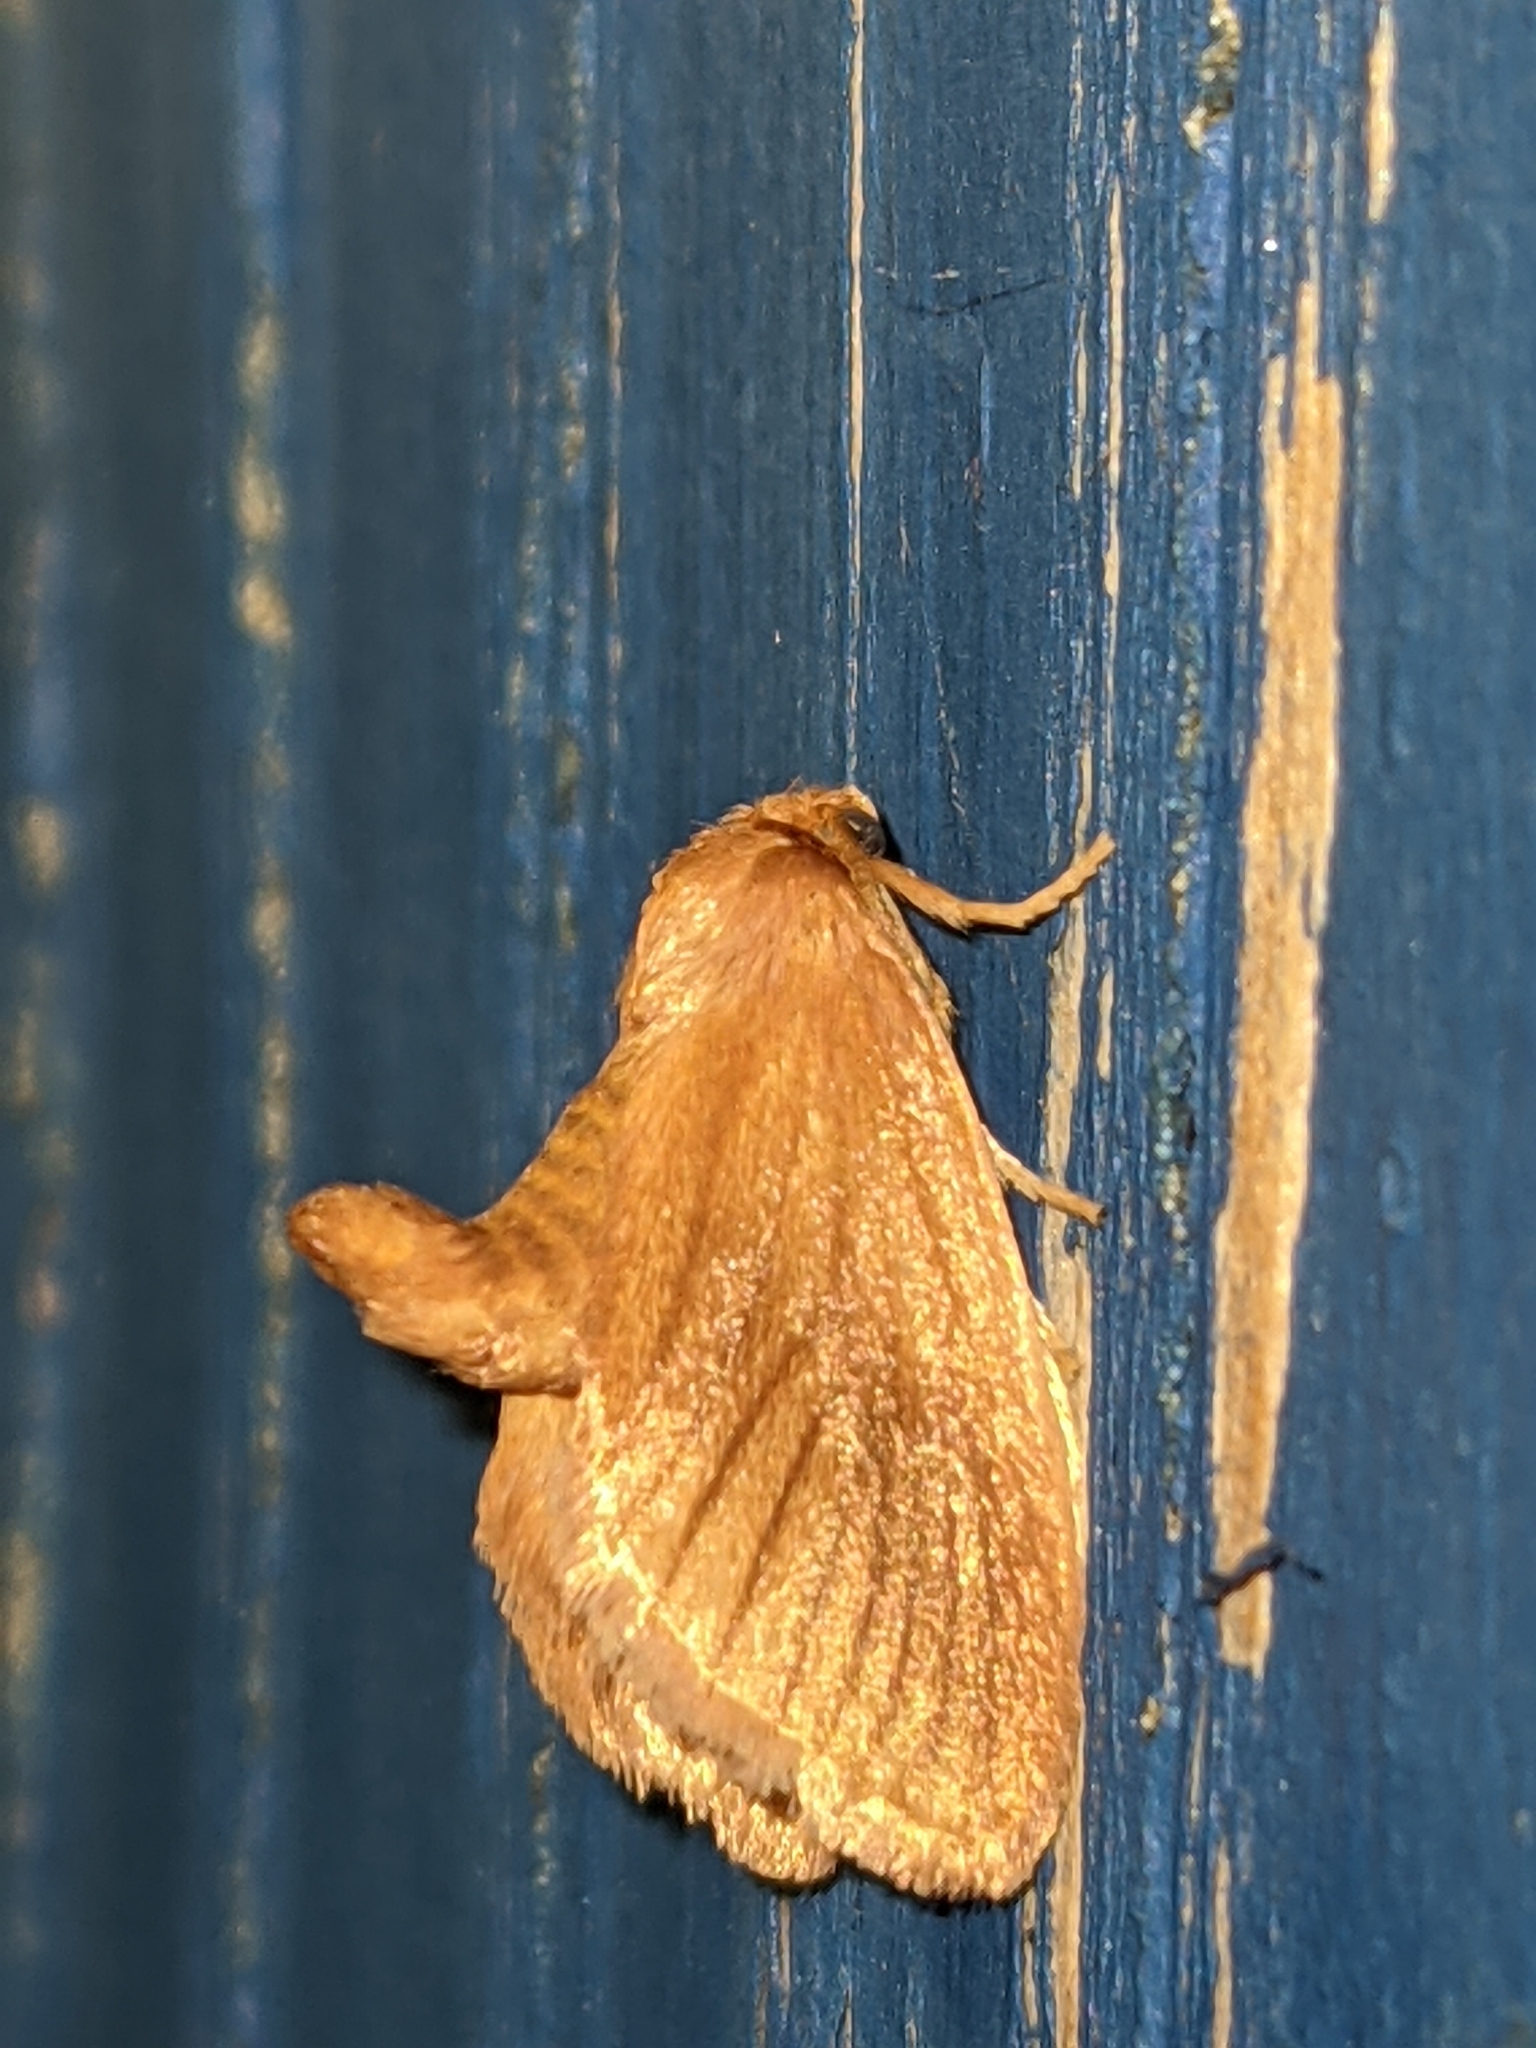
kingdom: Animalia
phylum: Arthropoda
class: Insecta
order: Lepidoptera
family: Limacodidae
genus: Tortricidia
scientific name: Tortricidia testacea
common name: Early button slug moth
